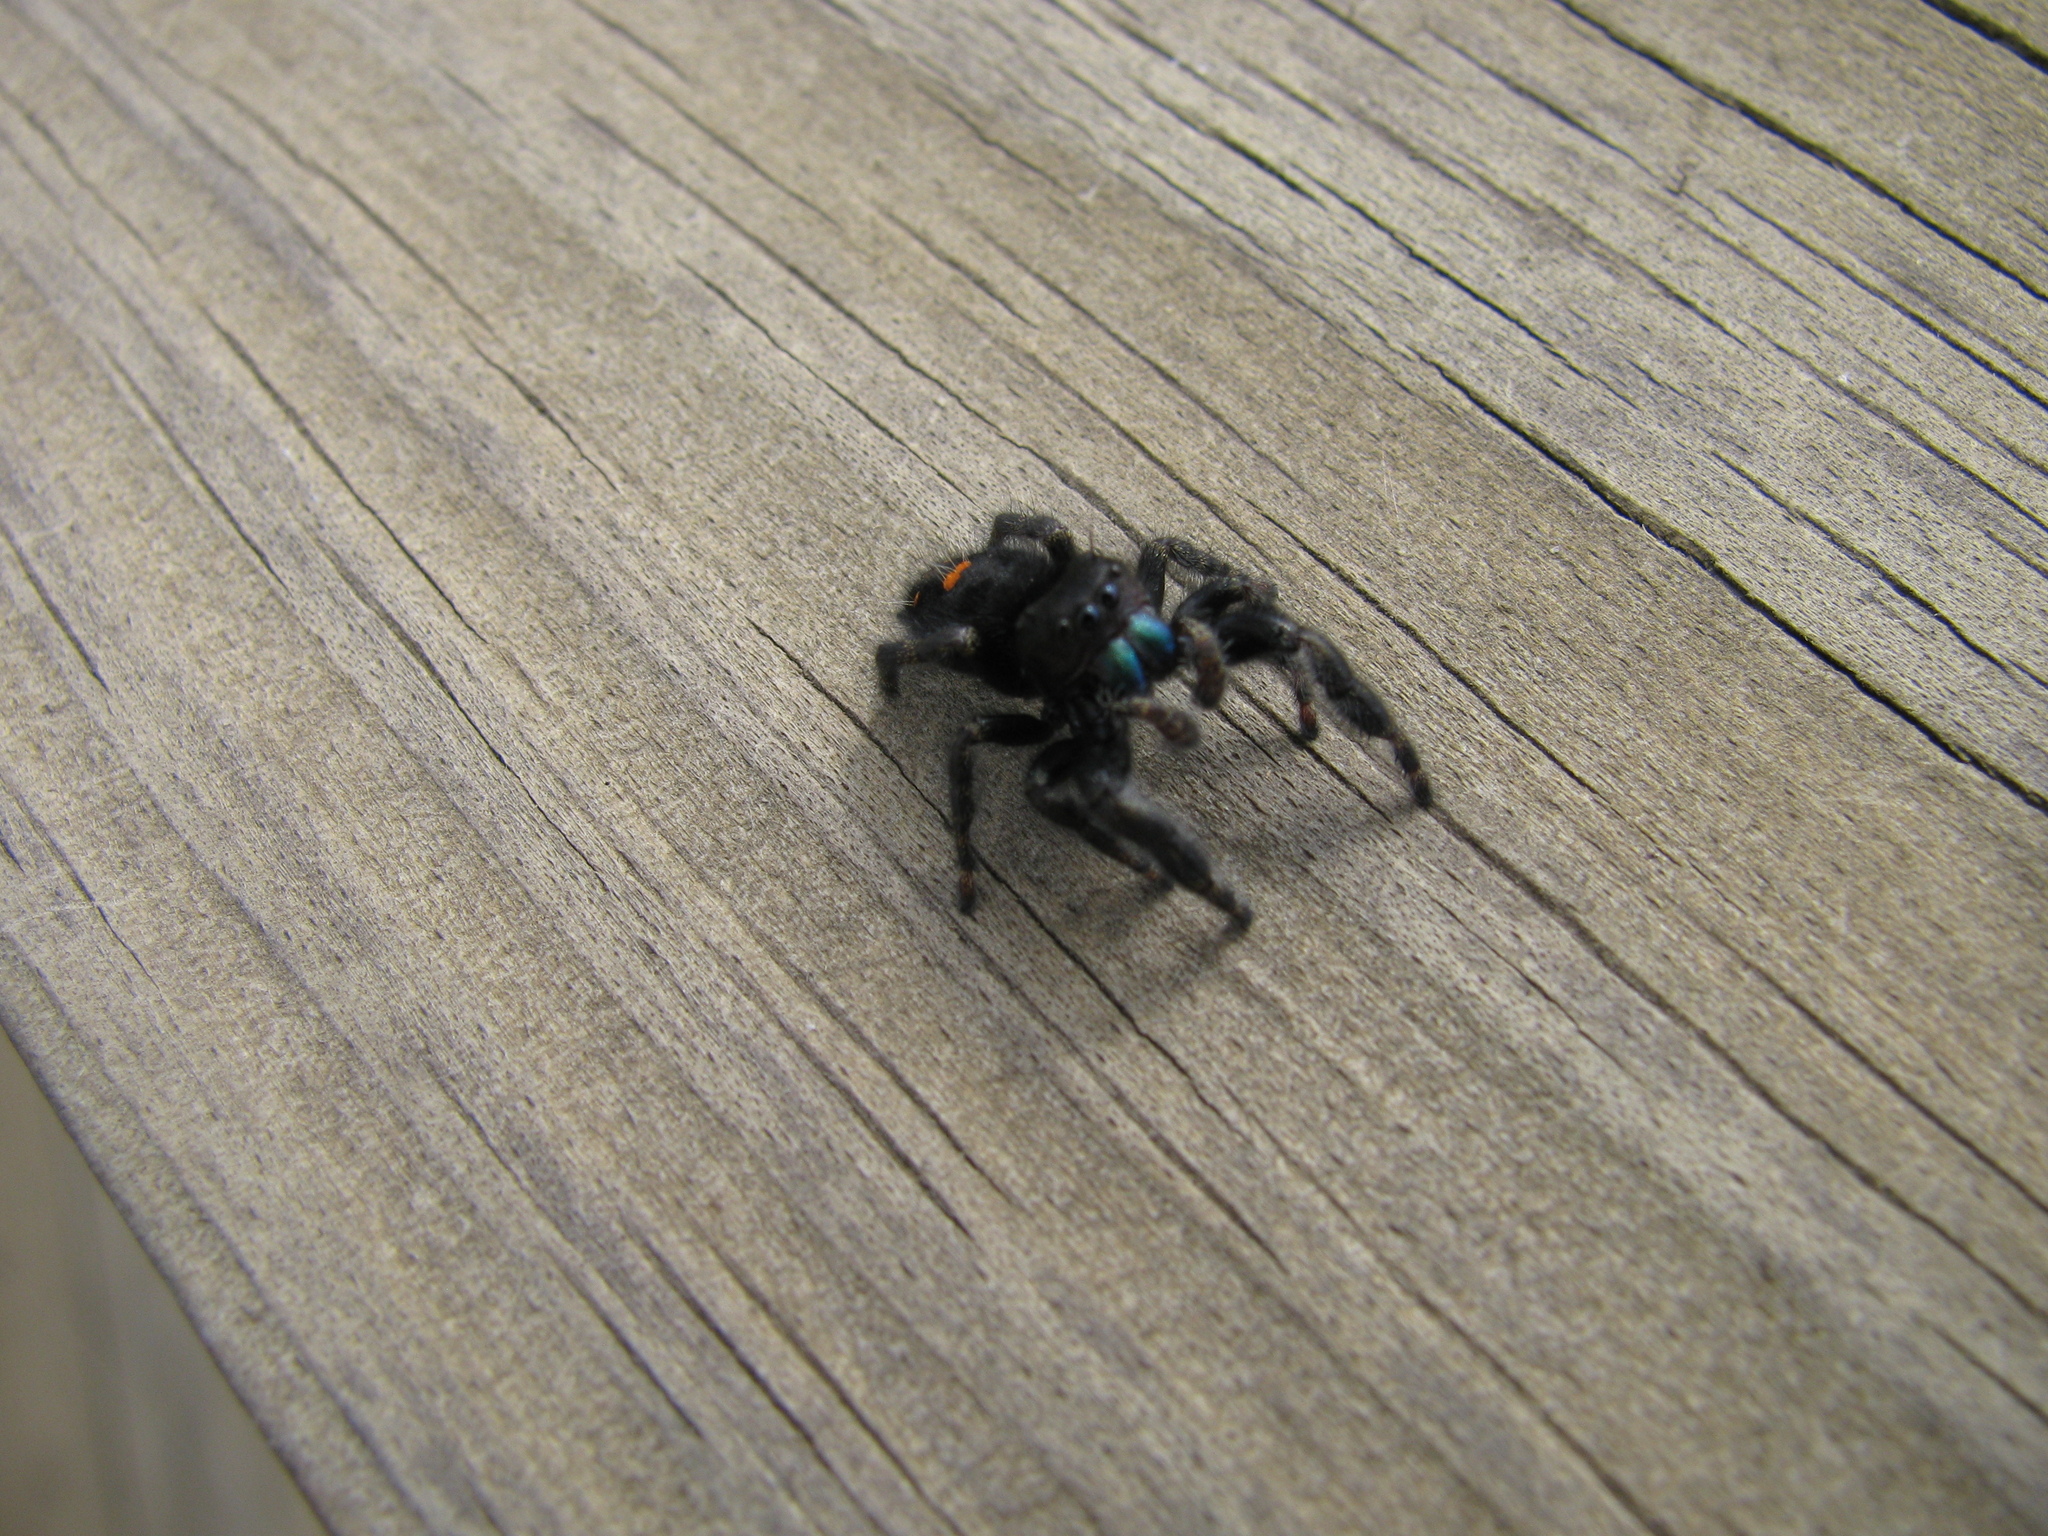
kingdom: Animalia
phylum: Arthropoda
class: Arachnida
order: Araneae
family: Salticidae
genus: Phidippus
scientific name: Phidippus audax
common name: Bold jumper
